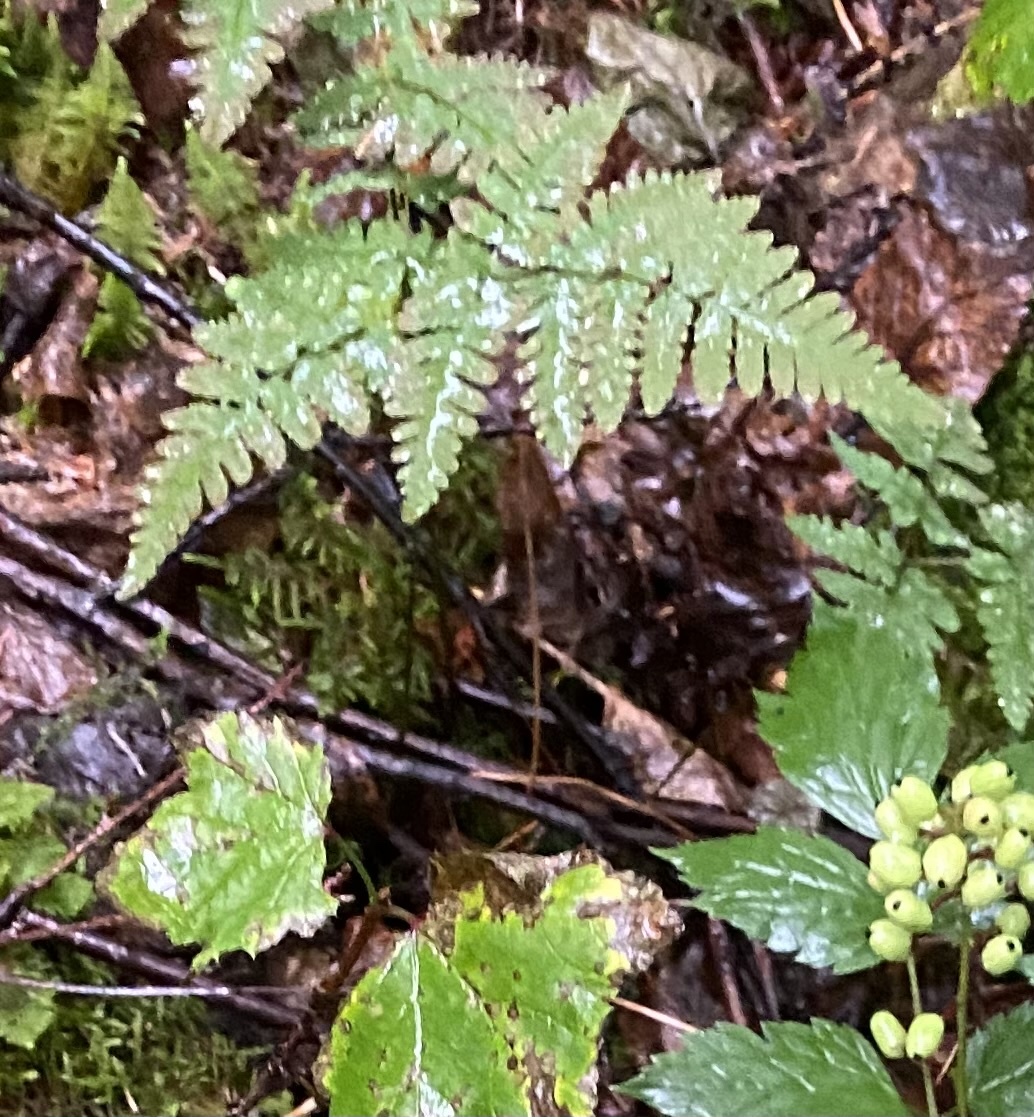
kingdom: Plantae
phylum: Tracheophyta
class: Polypodiopsida
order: Polypodiales
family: Cystopteridaceae
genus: Gymnocarpium
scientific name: Gymnocarpium jessoense
